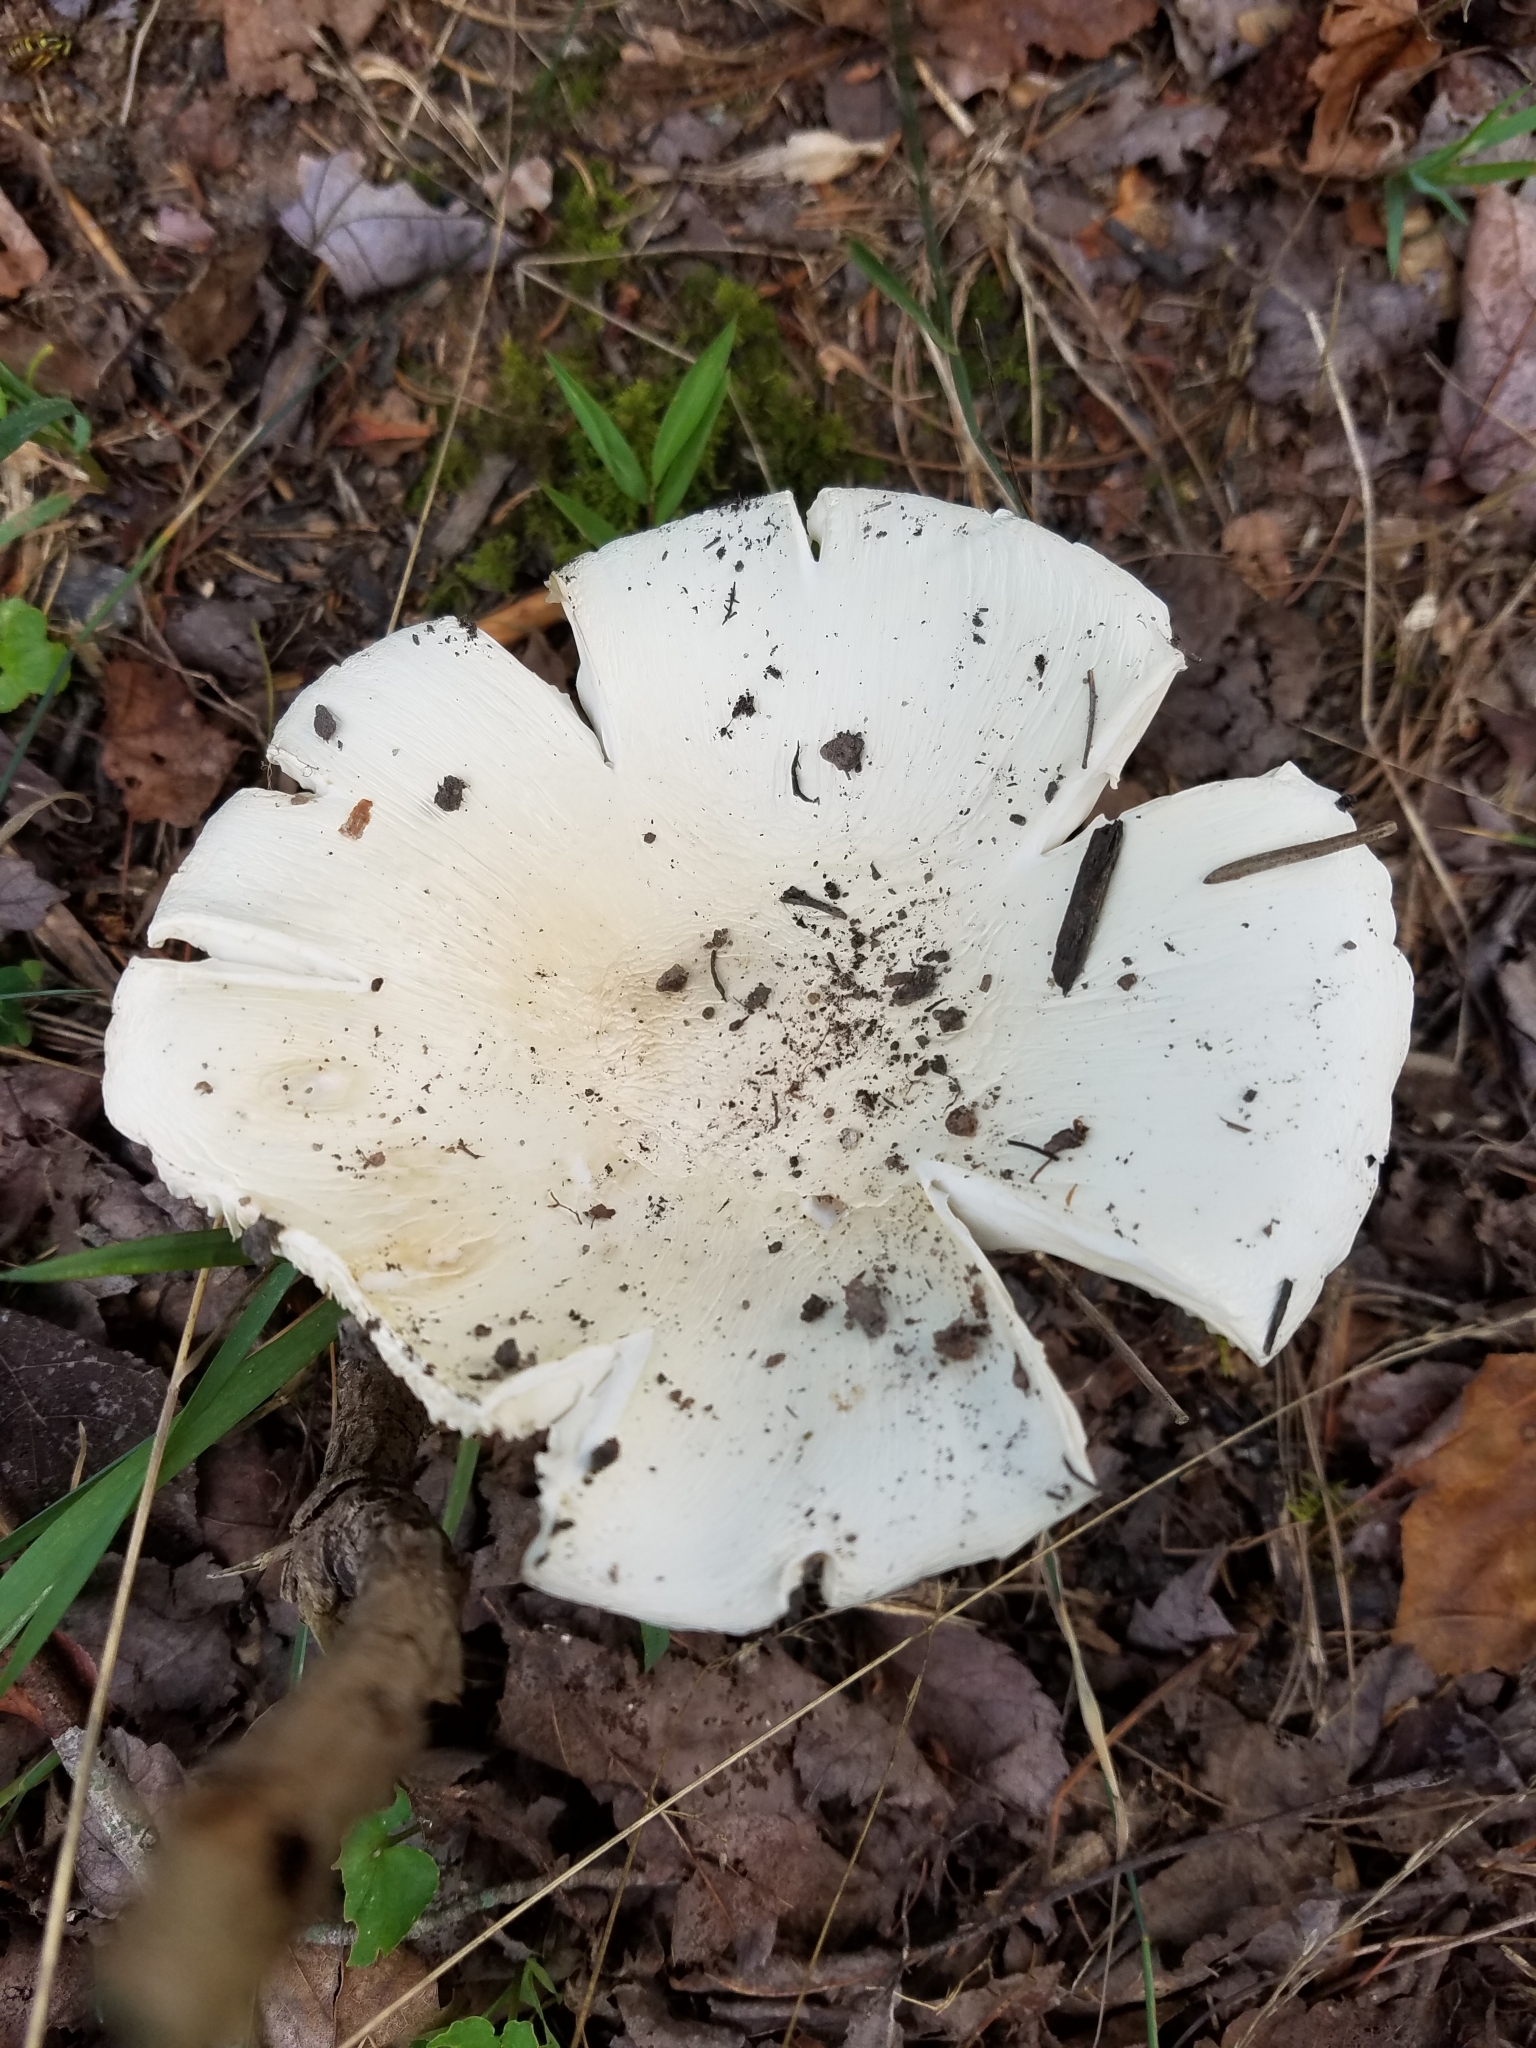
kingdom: Fungi
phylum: Basidiomycota
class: Agaricomycetes
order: Agaricales
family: Amanitaceae
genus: Amanita
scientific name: Amanita bisporigera
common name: Eastern north american destroying angel
